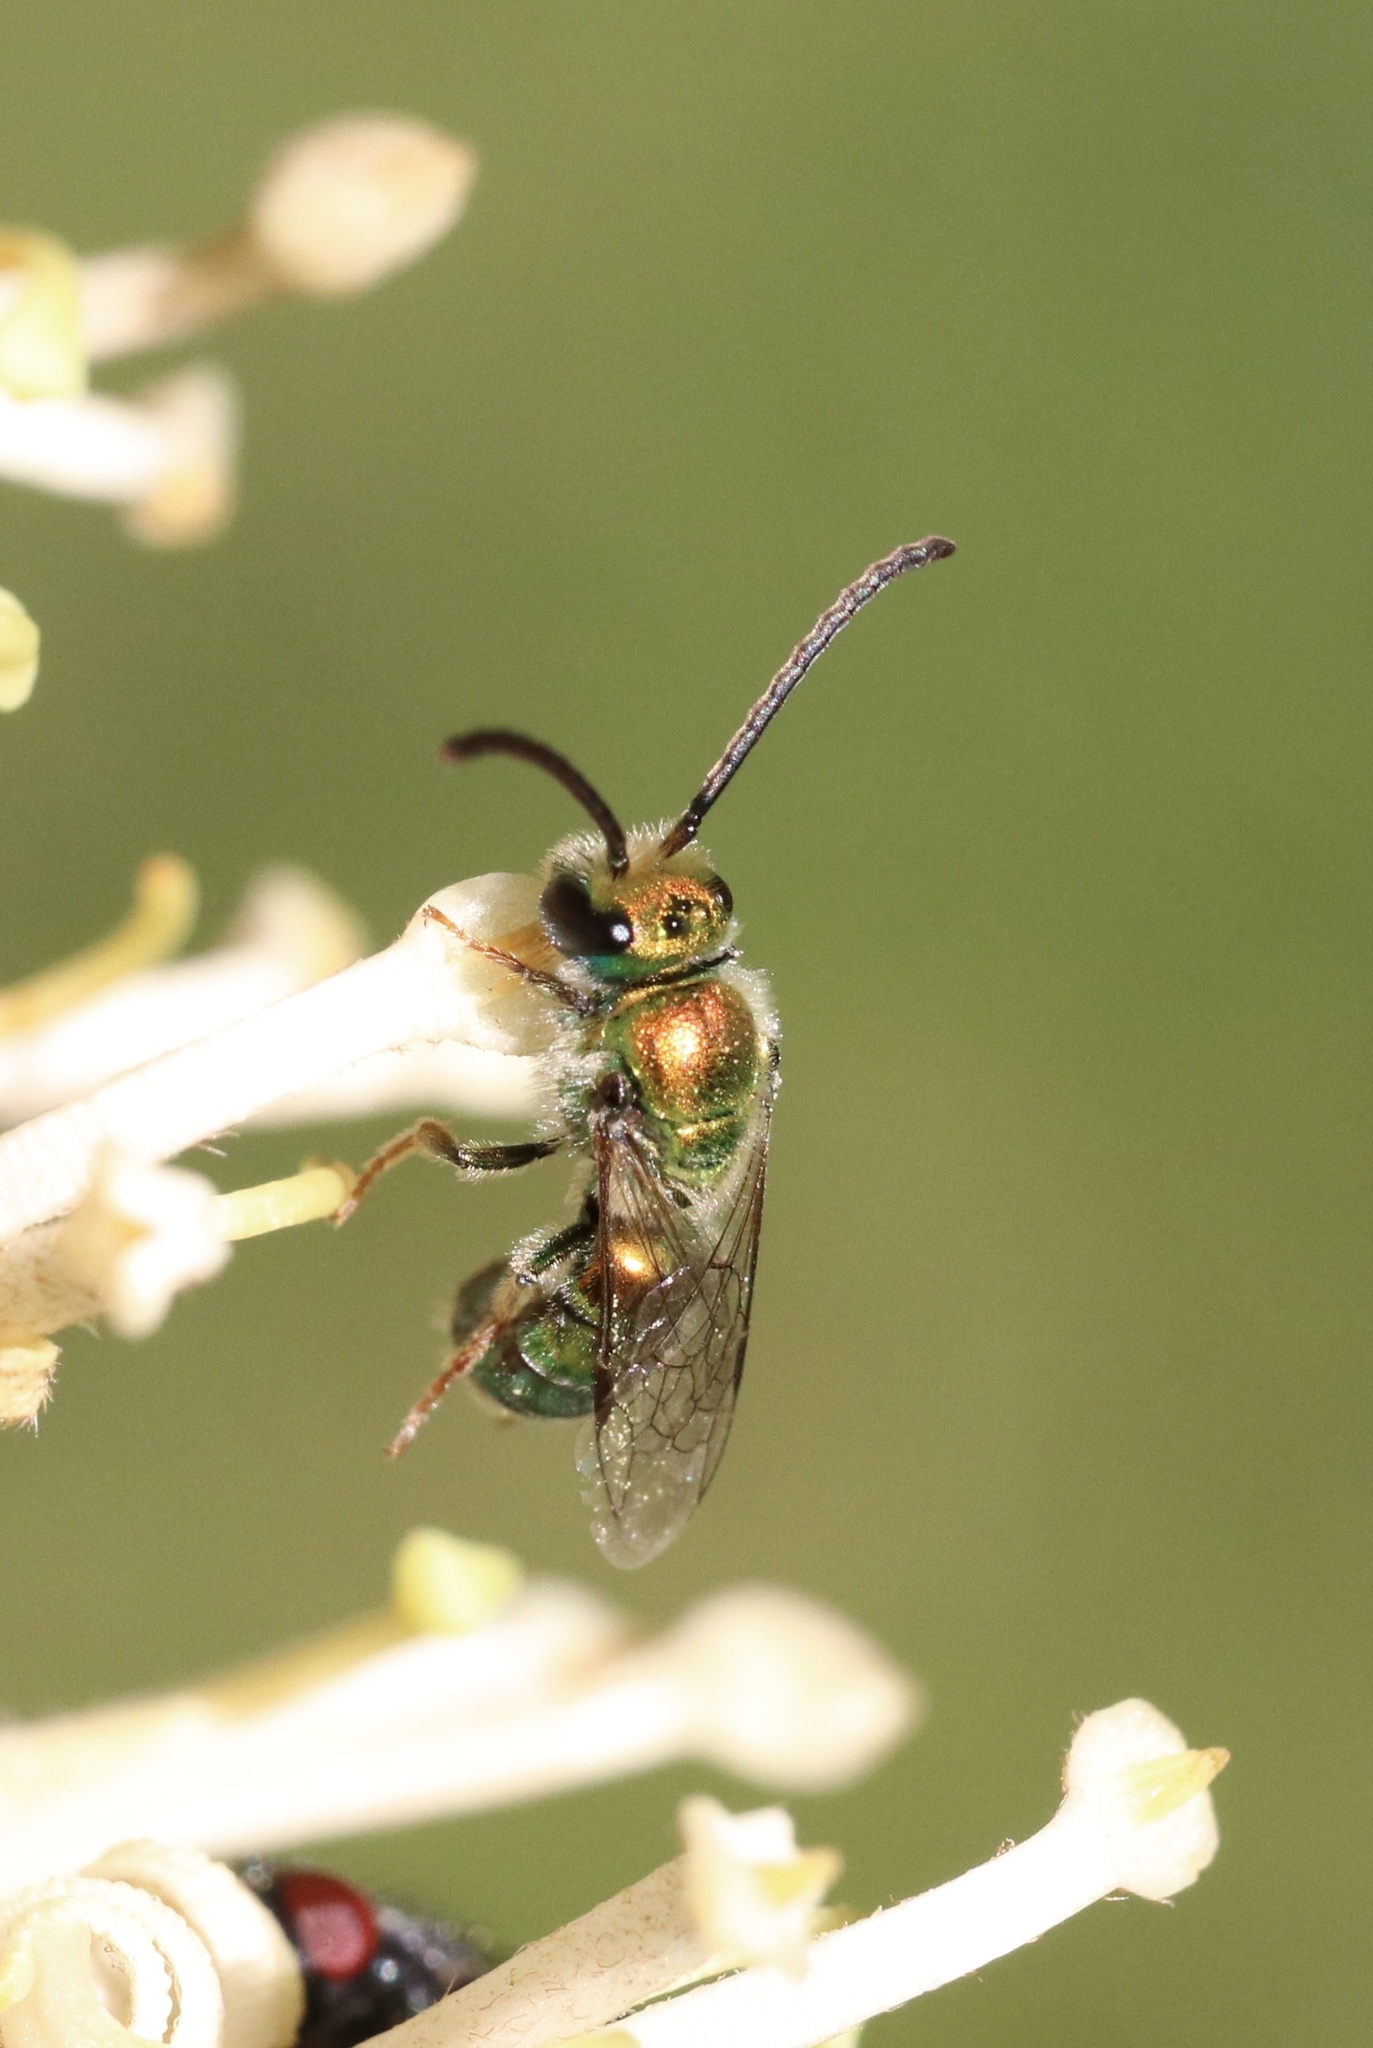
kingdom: Animalia
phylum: Arthropoda
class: Insecta
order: Hymenoptera
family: Halictidae
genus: Callistochlora
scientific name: Callistochlora aureoviridis
